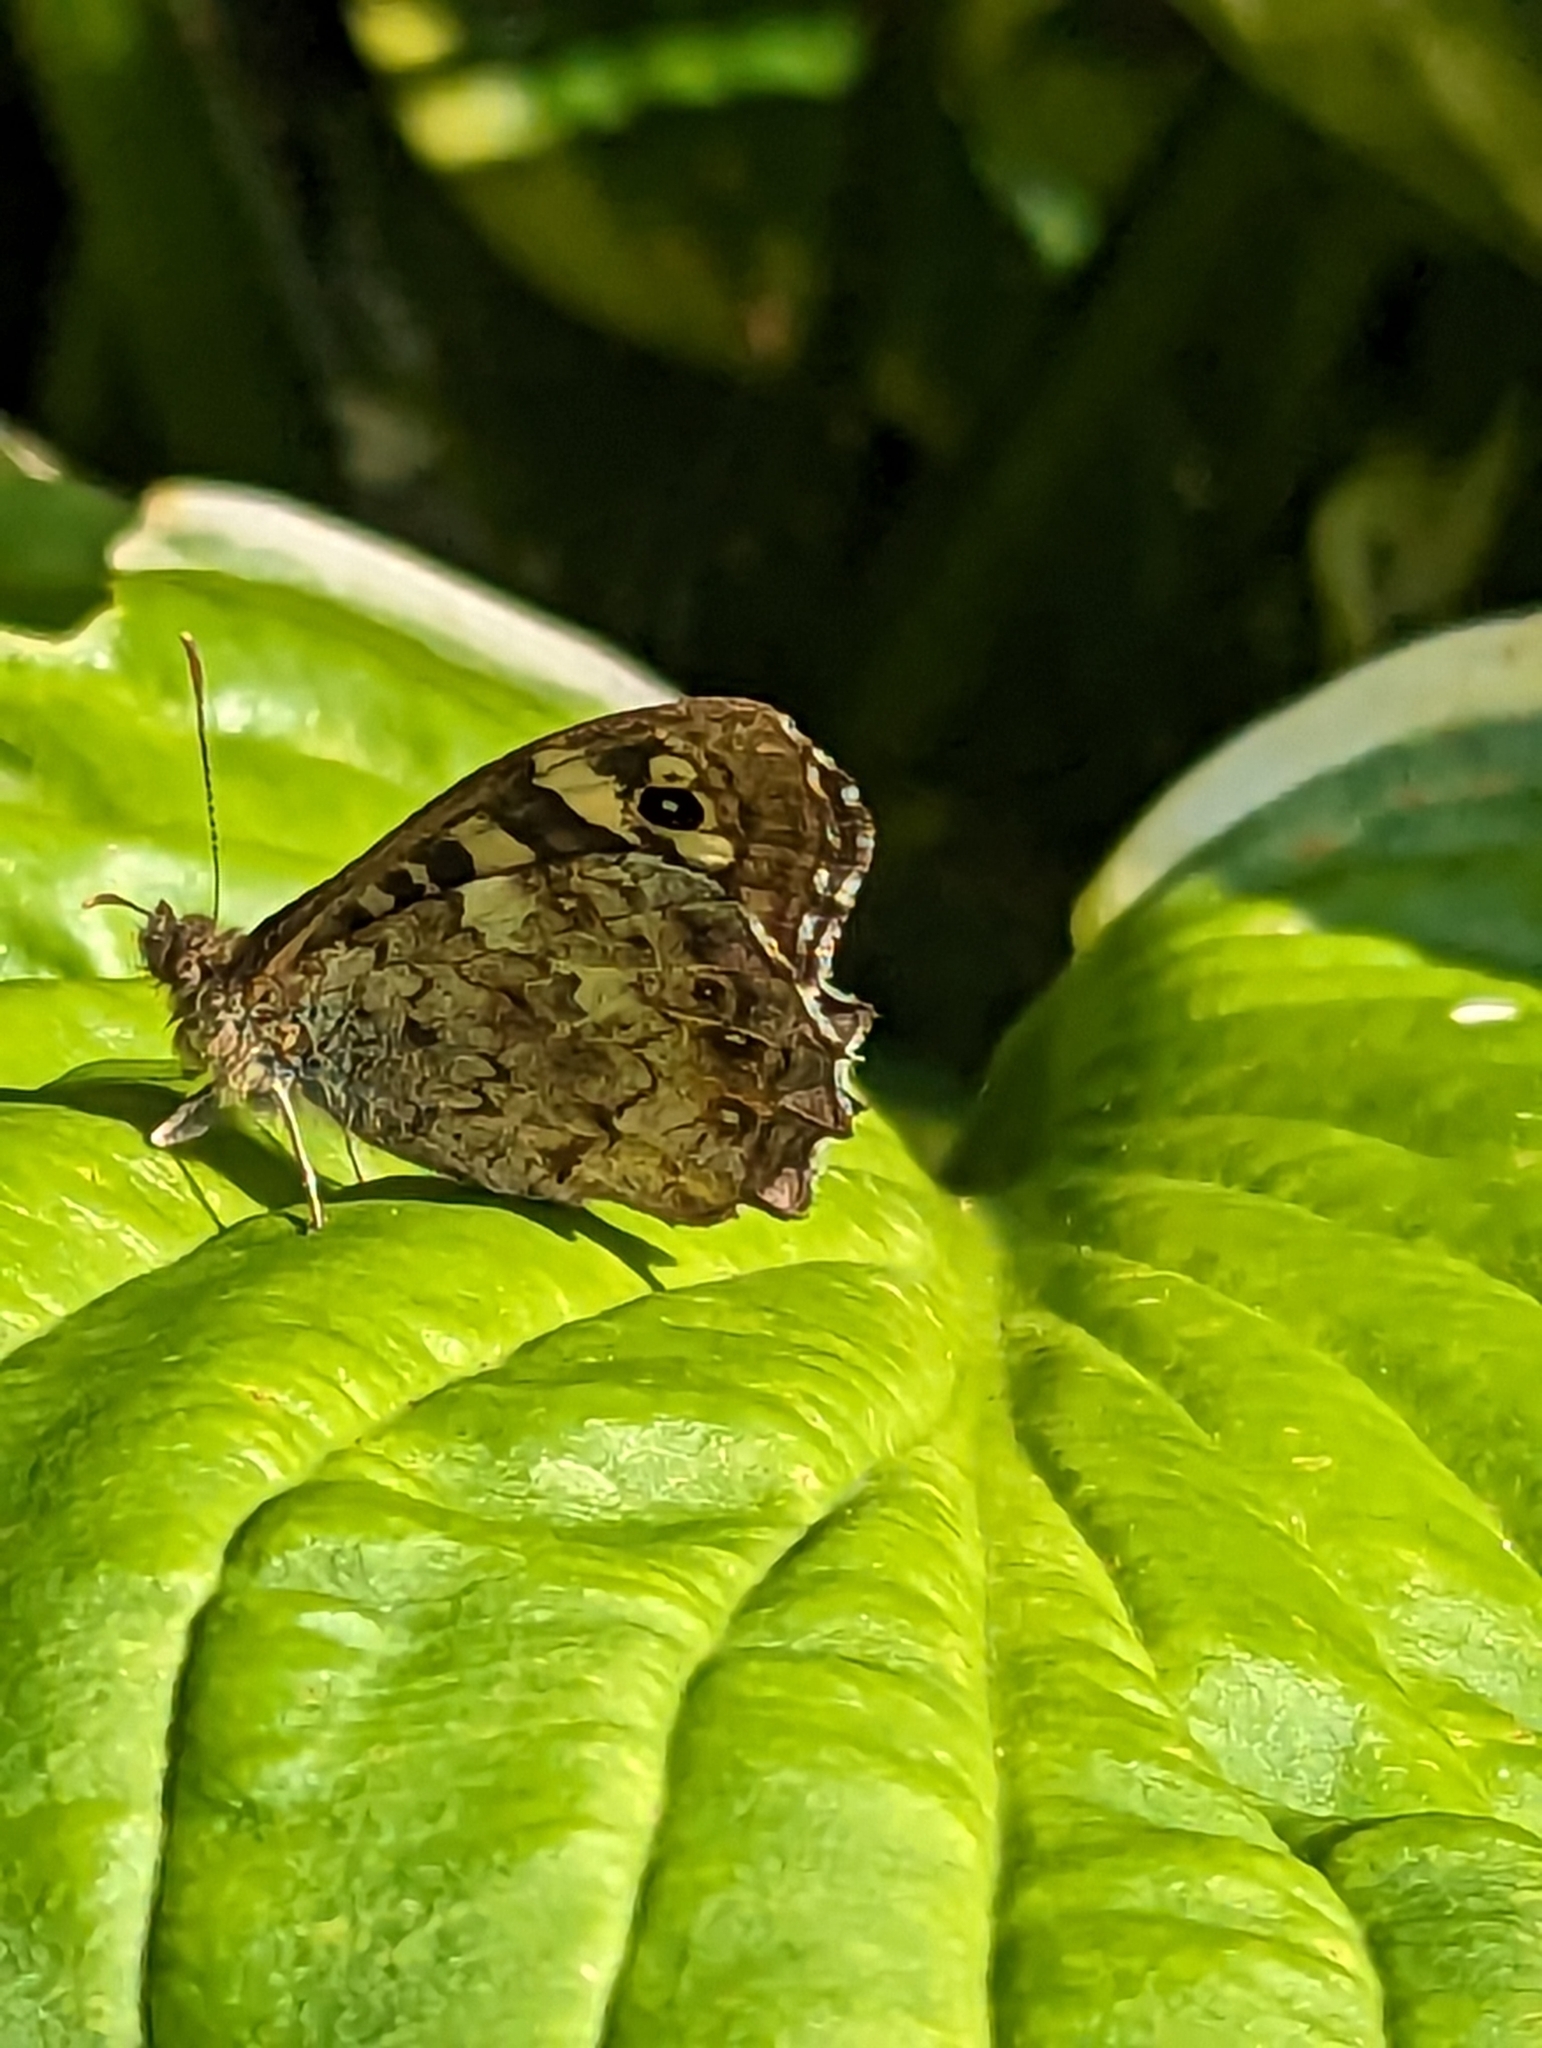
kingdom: Animalia
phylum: Arthropoda
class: Insecta
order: Lepidoptera
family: Nymphalidae
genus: Pararge
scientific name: Pararge aegeria
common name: Speckled wood
